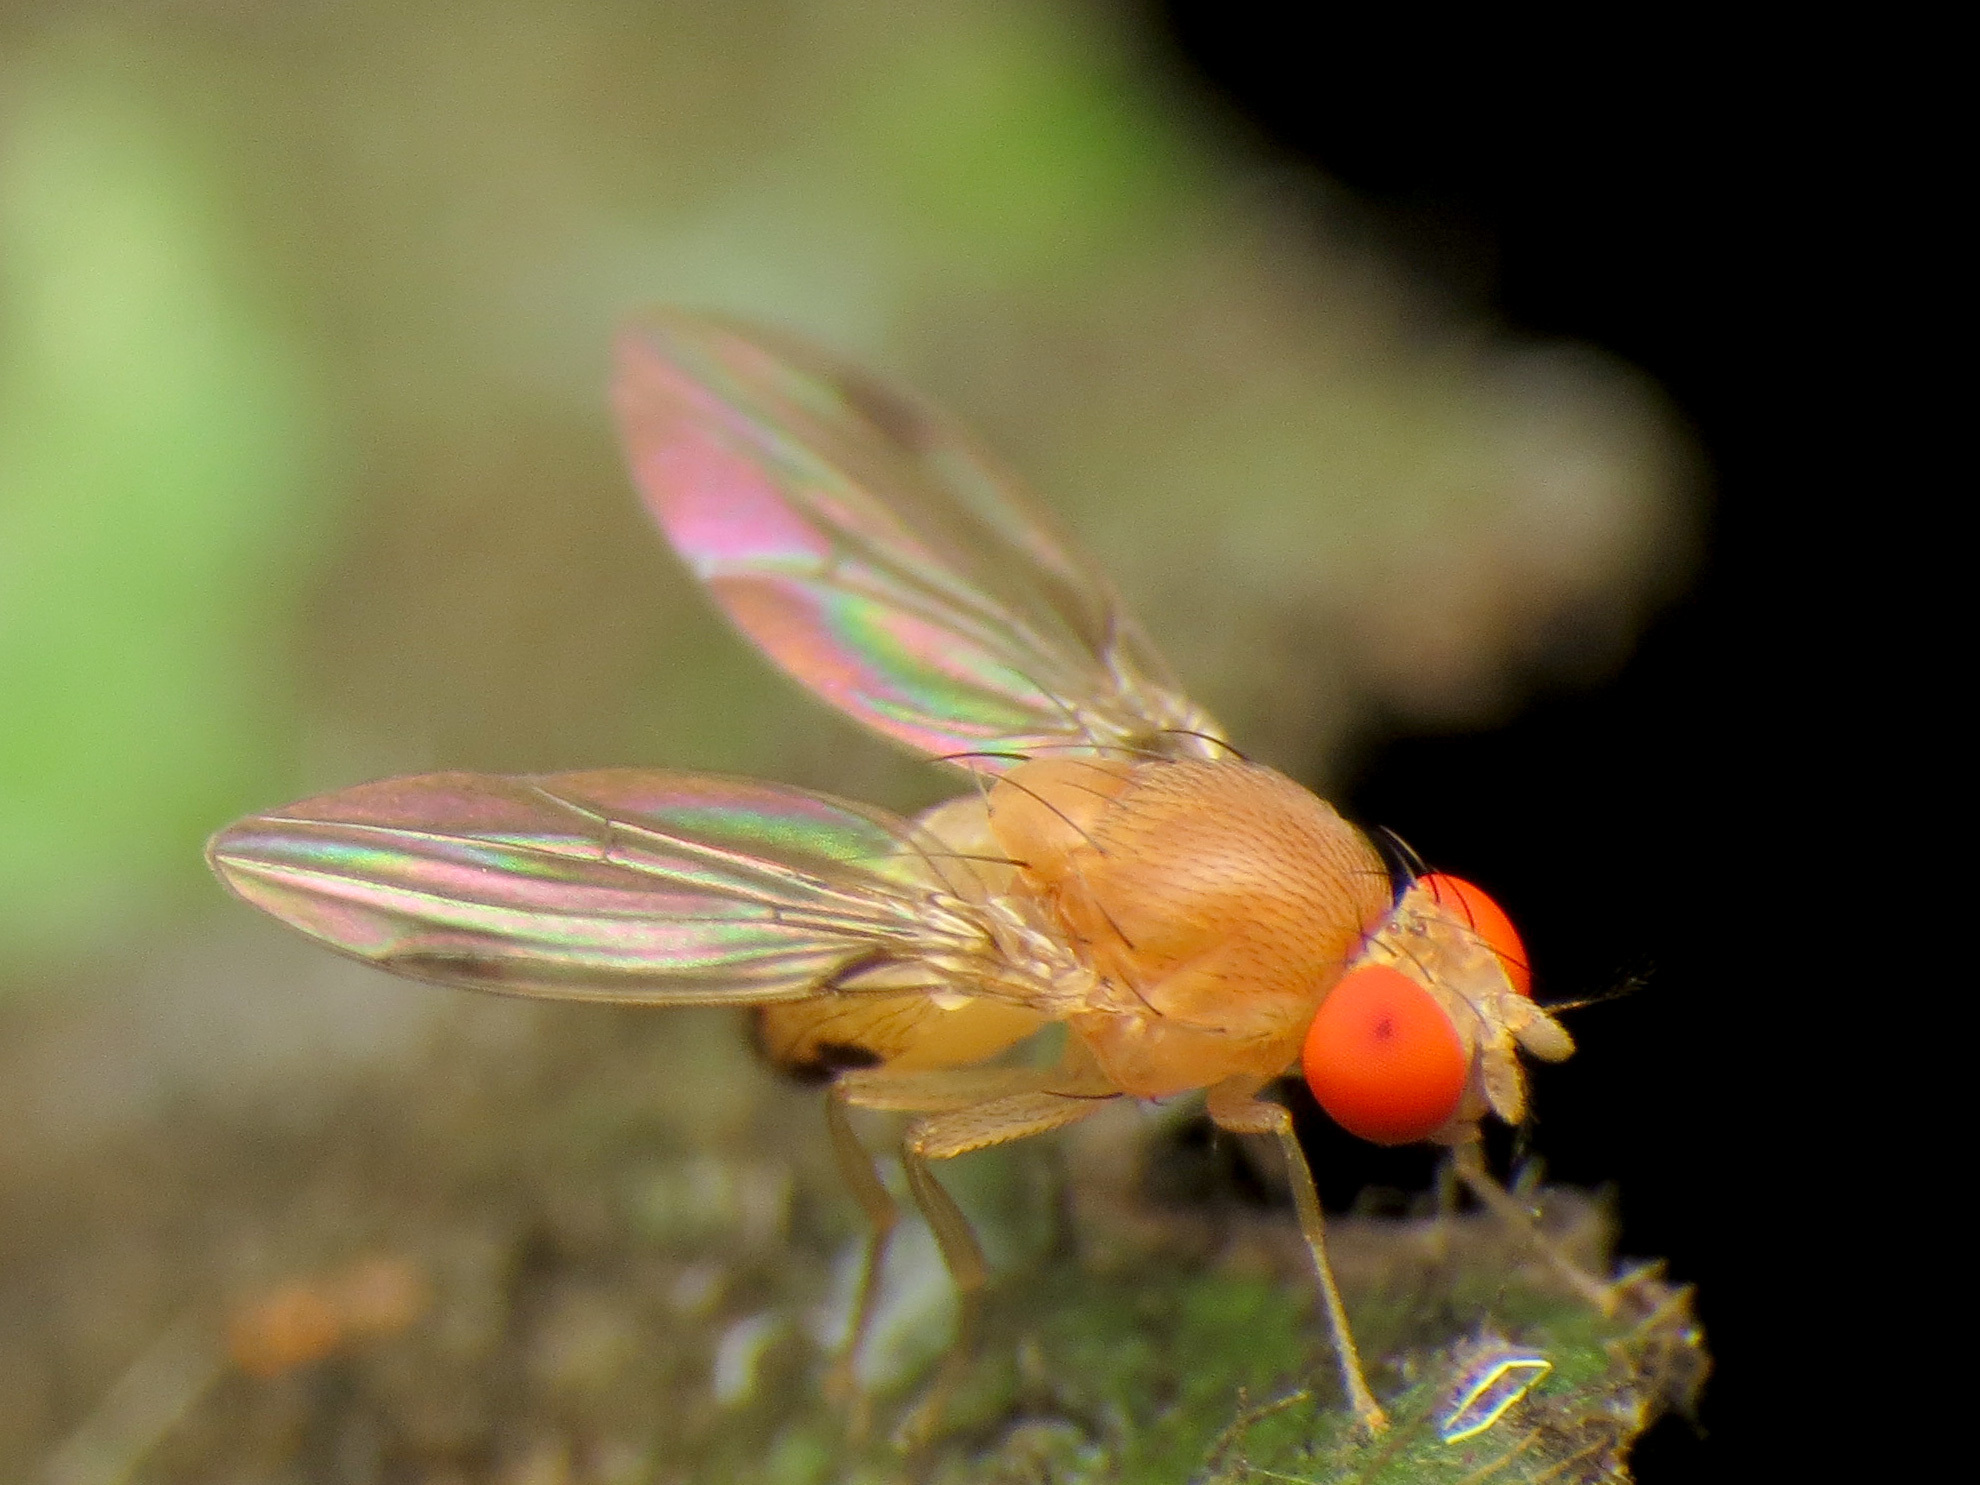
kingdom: Animalia
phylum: Arthropoda
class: Insecta
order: Diptera
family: Drosophilidae
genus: Leucophenga
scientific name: Leucophenga varia
